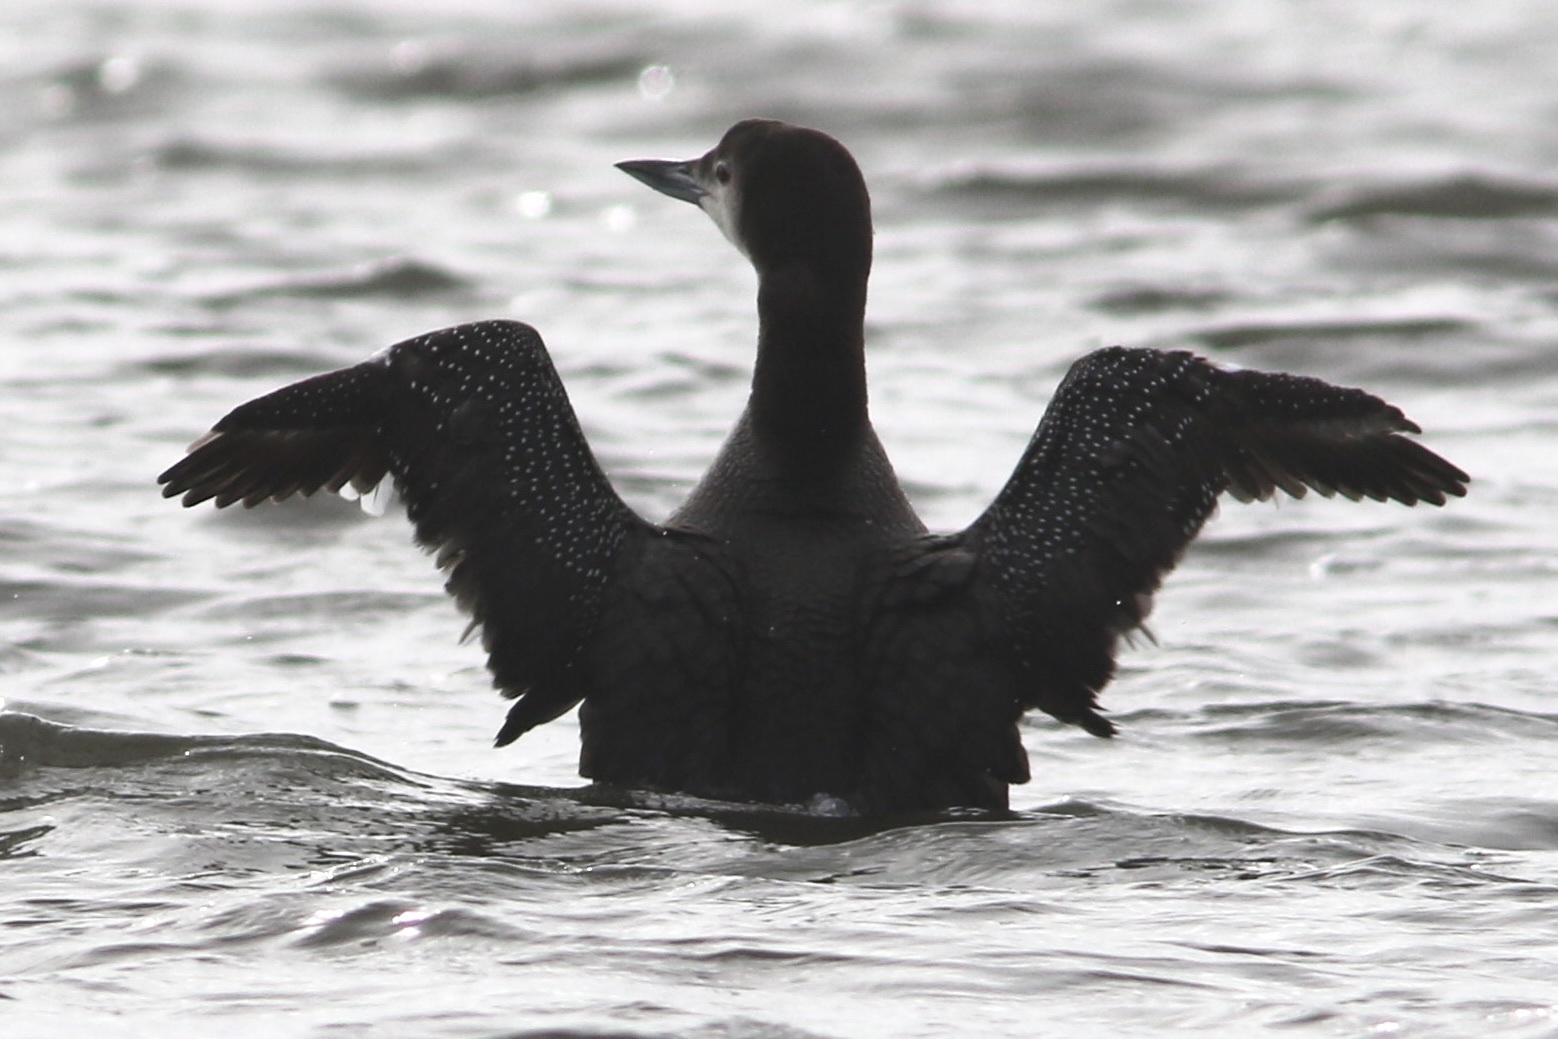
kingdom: Animalia
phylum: Chordata
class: Aves
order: Gaviiformes
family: Gaviidae
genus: Gavia
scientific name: Gavia immer
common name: Common loon
